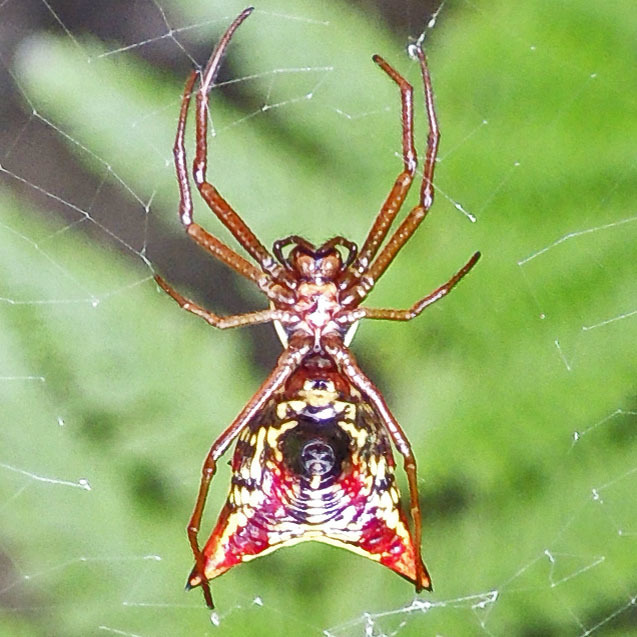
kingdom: Animalia
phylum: Arthropoda
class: Arachnida
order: Araneae
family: Araneidae
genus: Micrathena
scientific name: Micrathena sagittata
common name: Orb weavers
